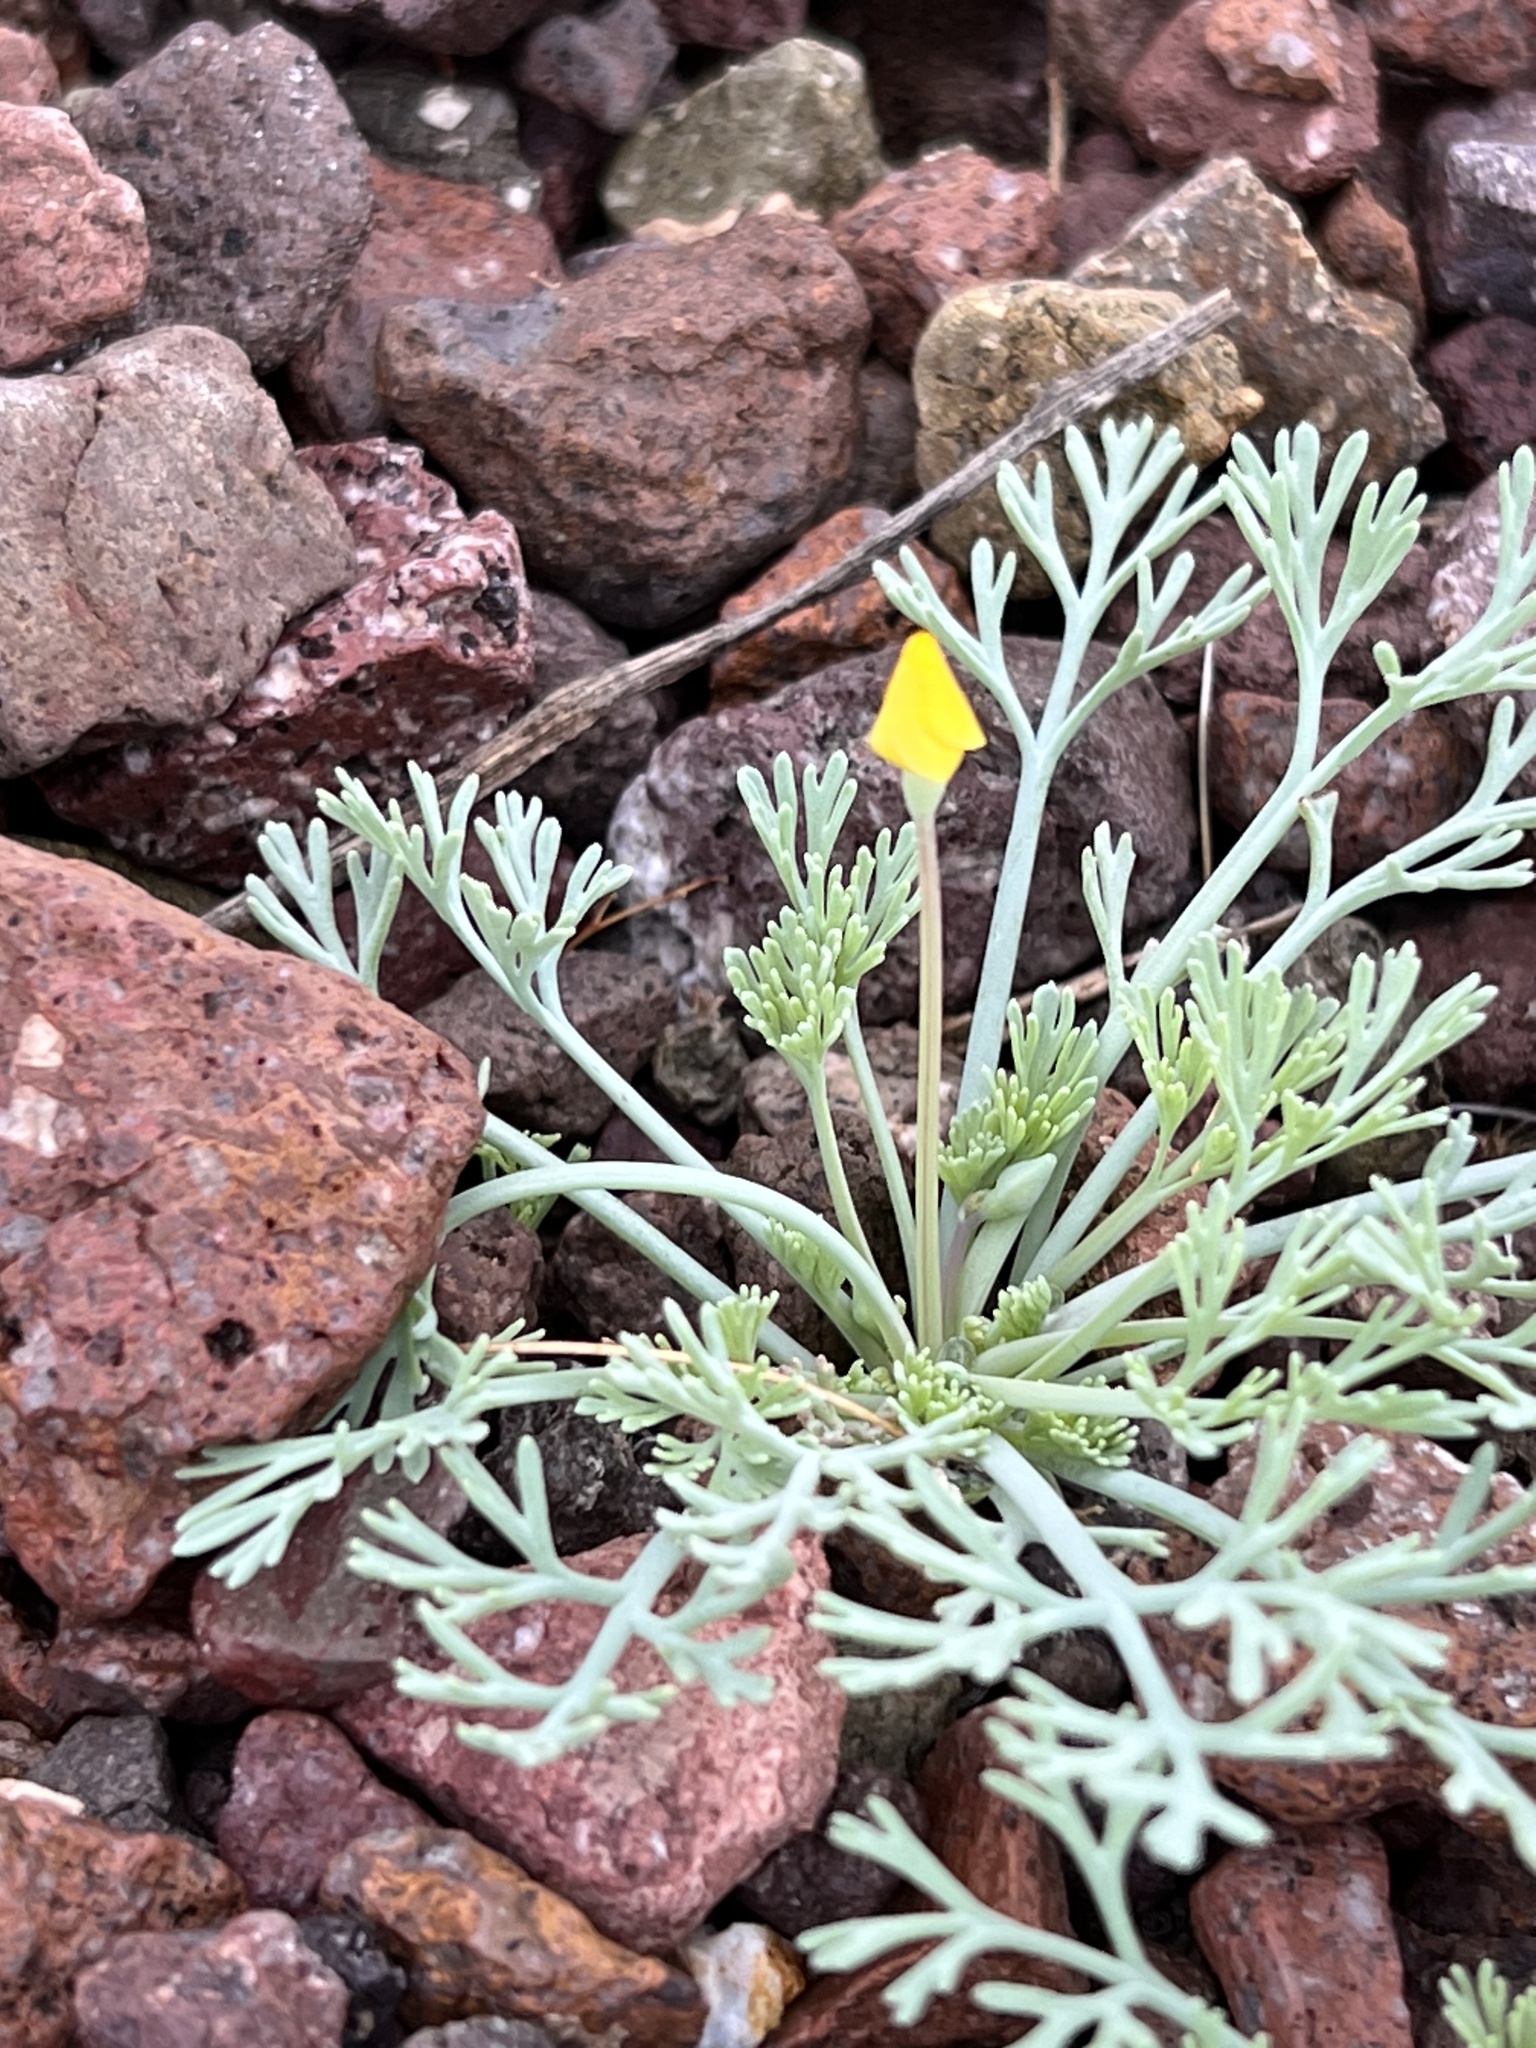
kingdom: Plantae
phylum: Tracheophyta
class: Magnoliopsida
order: Ranunculales
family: Papaveraceae
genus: Eschscholzia
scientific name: Eschscholzia minutiflora
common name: Small-flower california-poppy
